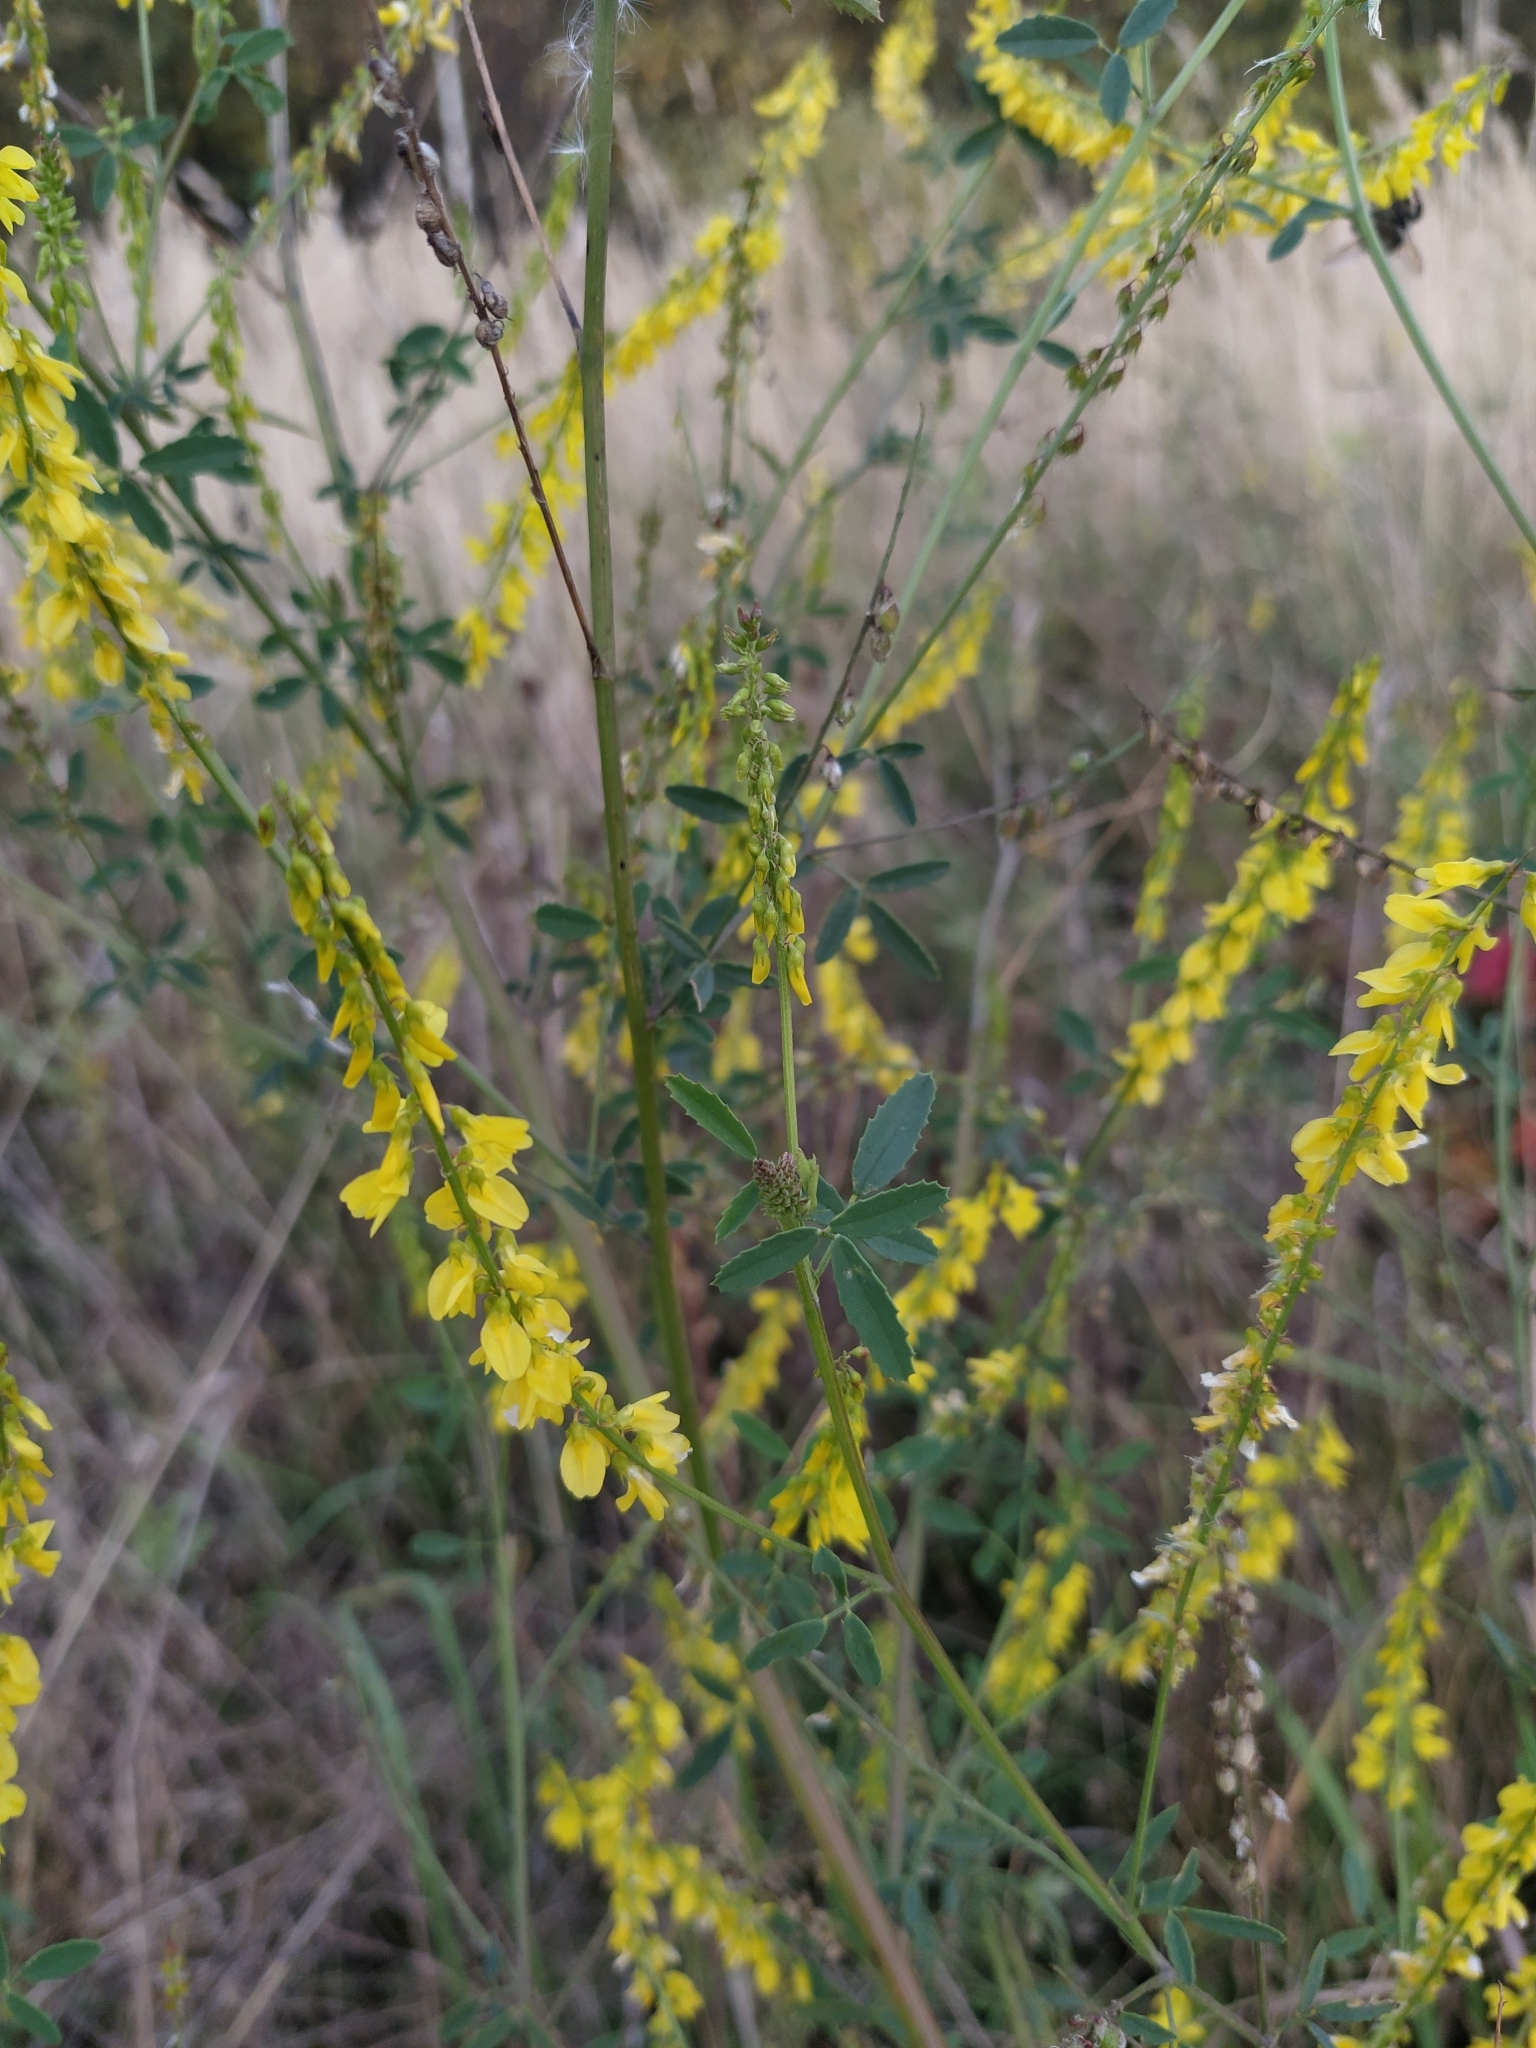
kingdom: Plantae
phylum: Tracheophyta
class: Magnoliopsida
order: Fabales
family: Fabaceae
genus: Melilotus
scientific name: Melilotus officinalis
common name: Sweetclover
